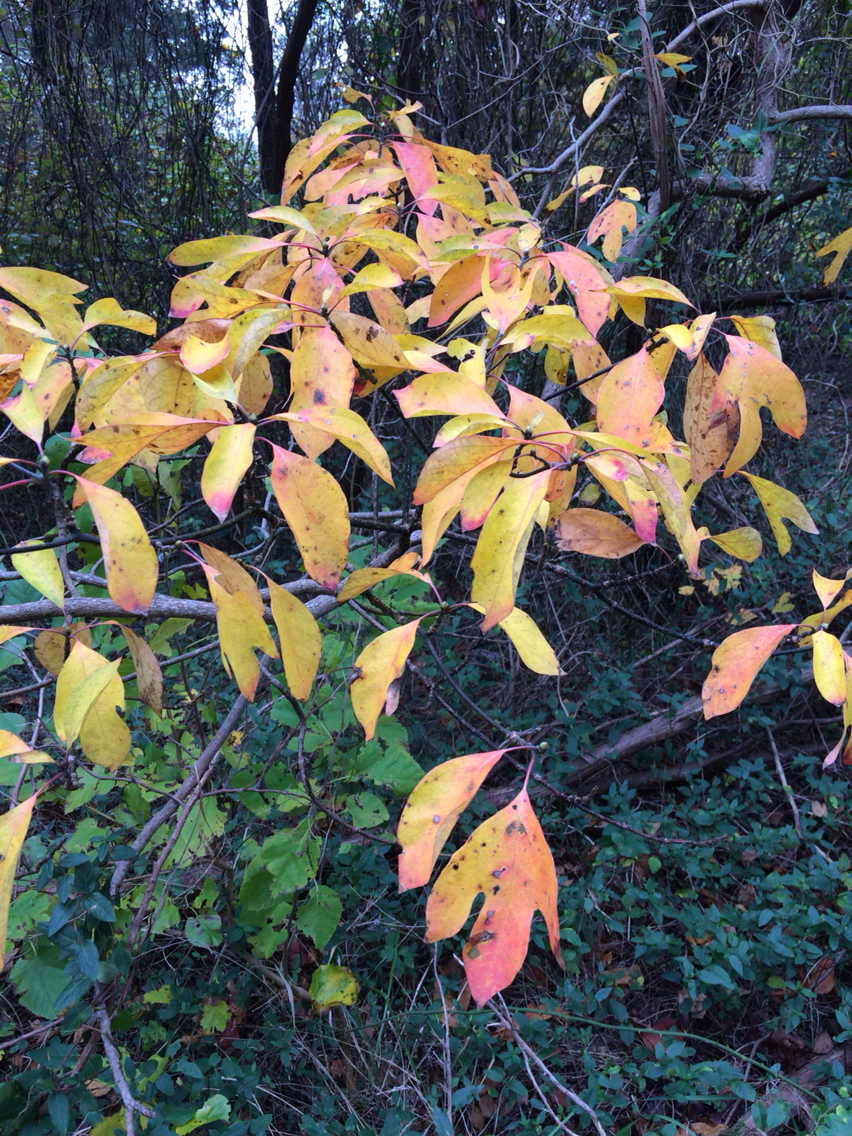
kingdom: Plantae
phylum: Tracheophyta
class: Magnoliopsida
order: Laurales
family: Lauraceae
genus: Sassafras
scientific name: Sassafras albidum
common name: Sassafras
